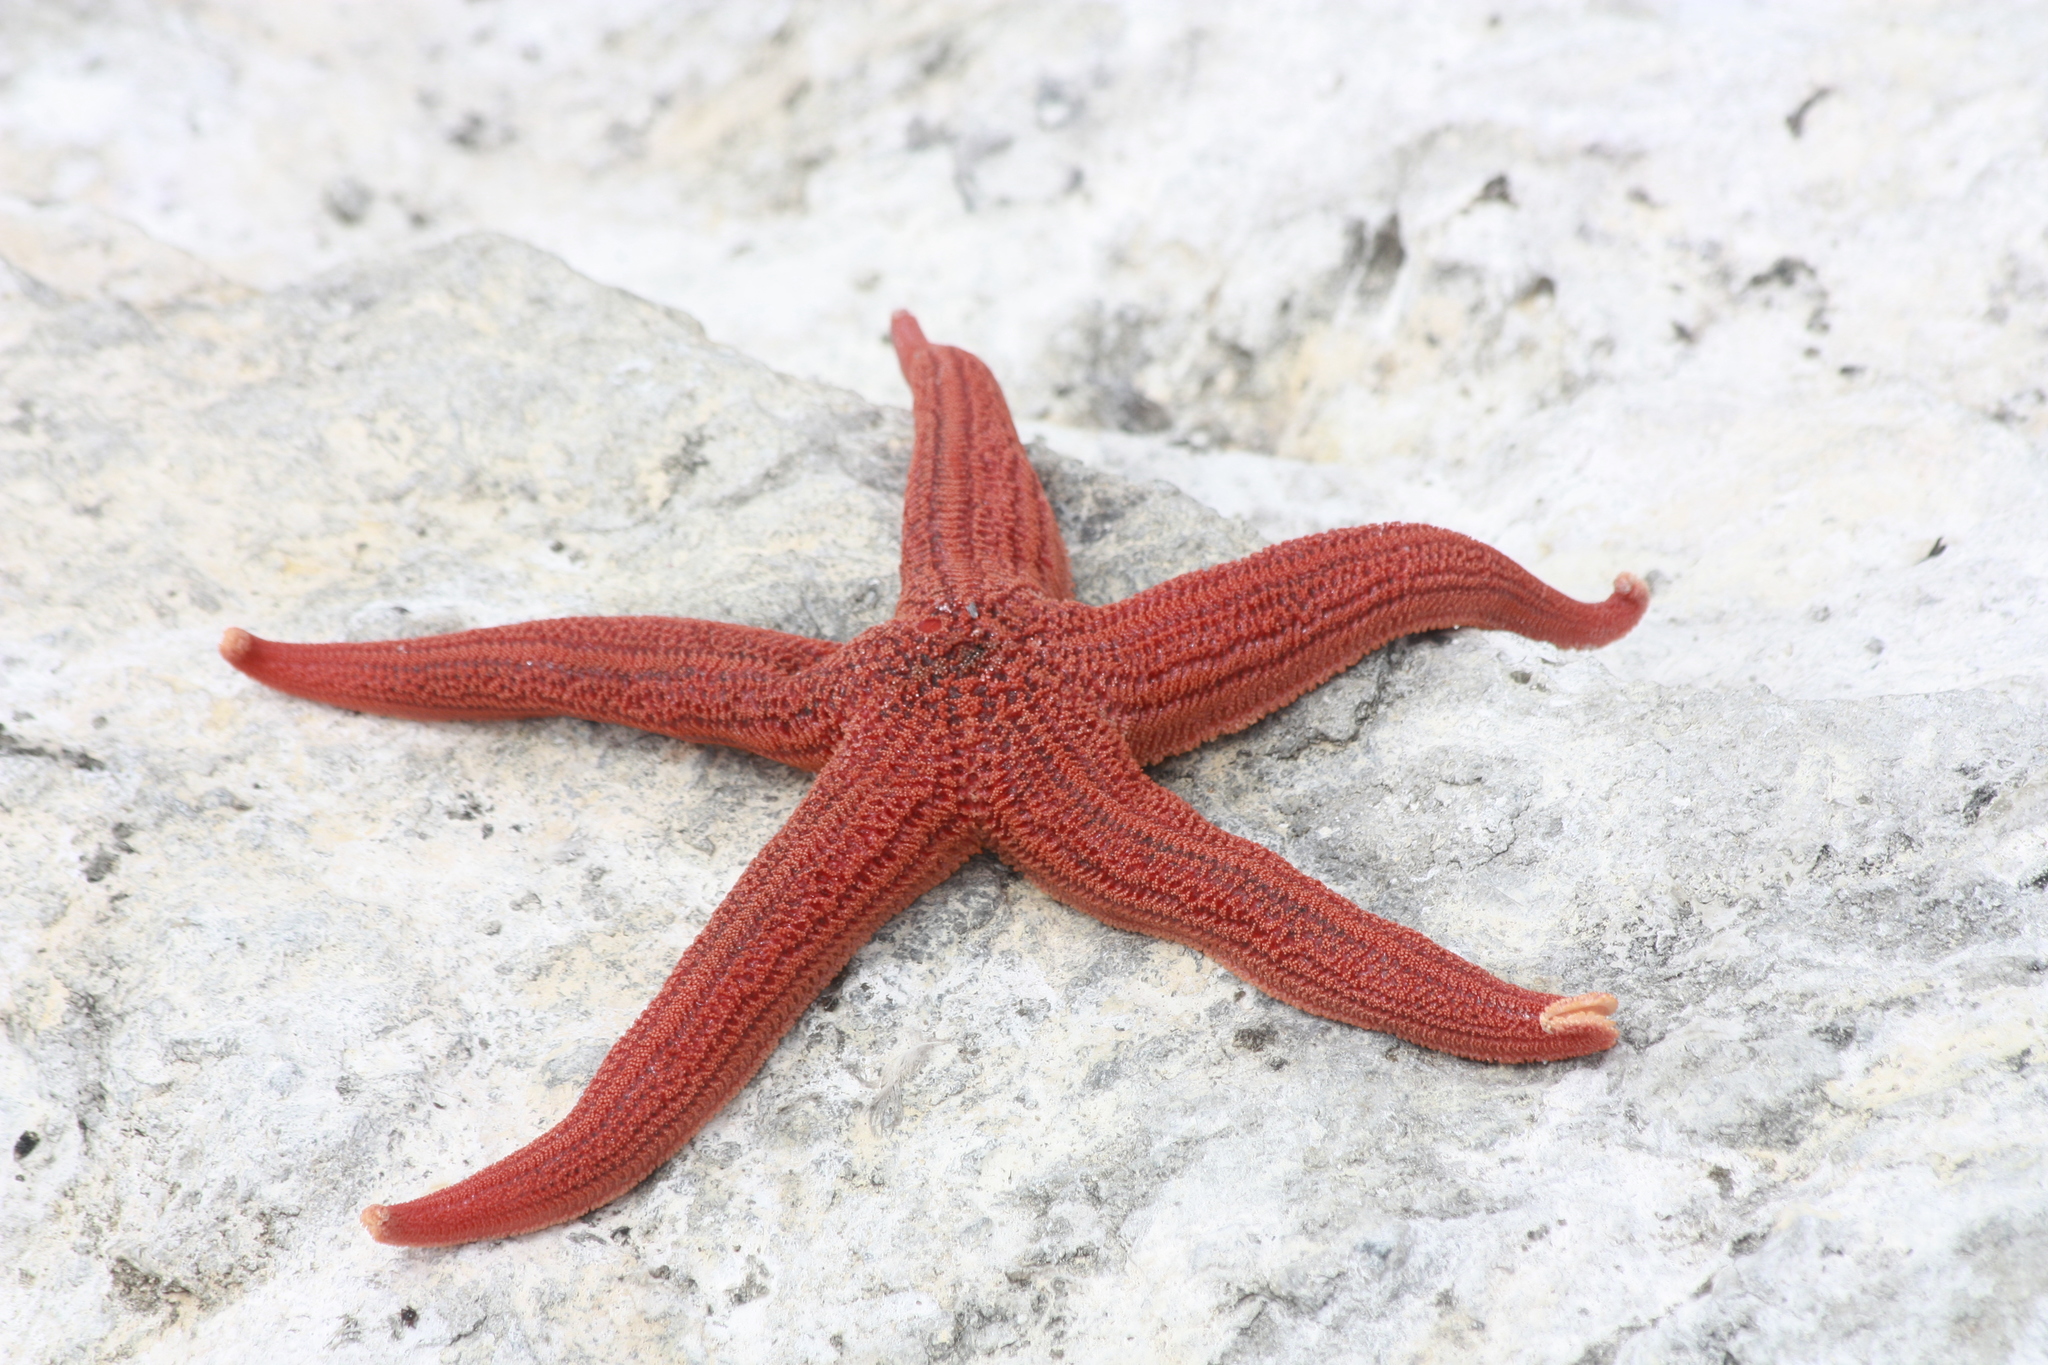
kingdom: Animalia
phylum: Echinodermata
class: Asteroidea
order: Forcipulatida
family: Stichasteridae
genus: Stichaster
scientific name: Stichaster striatus
